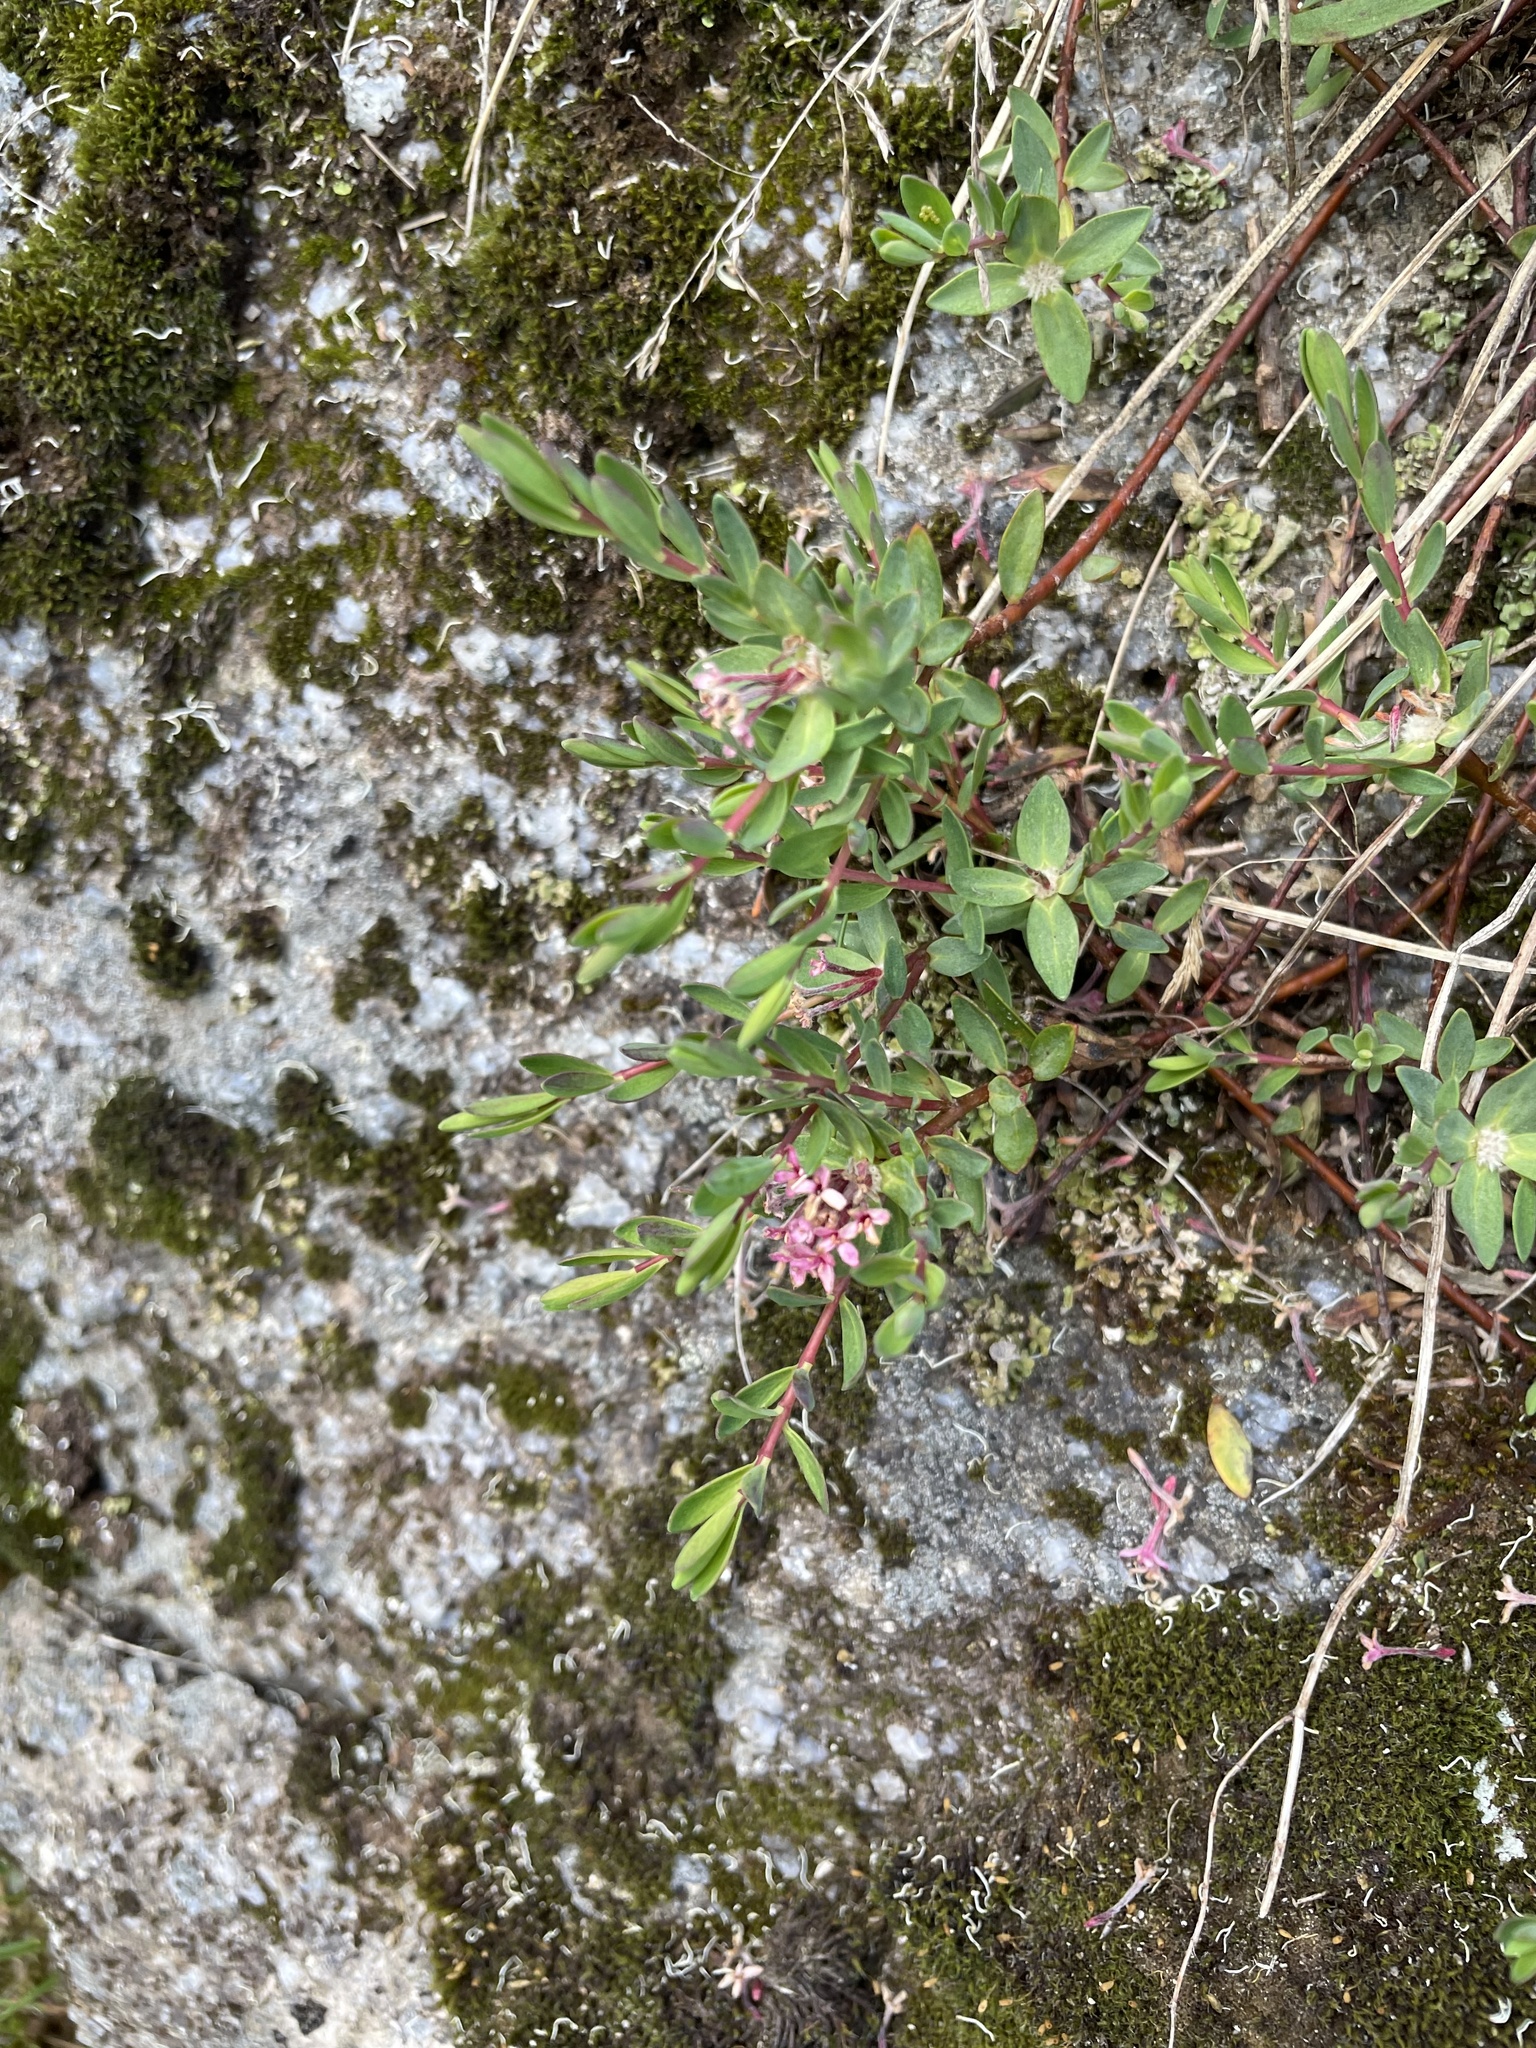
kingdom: Plantae
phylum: Tracheophyta
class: Magnoliopsida
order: Malvales
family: Thymelaeaceae
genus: Pimelea
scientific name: Pimelea alpina
